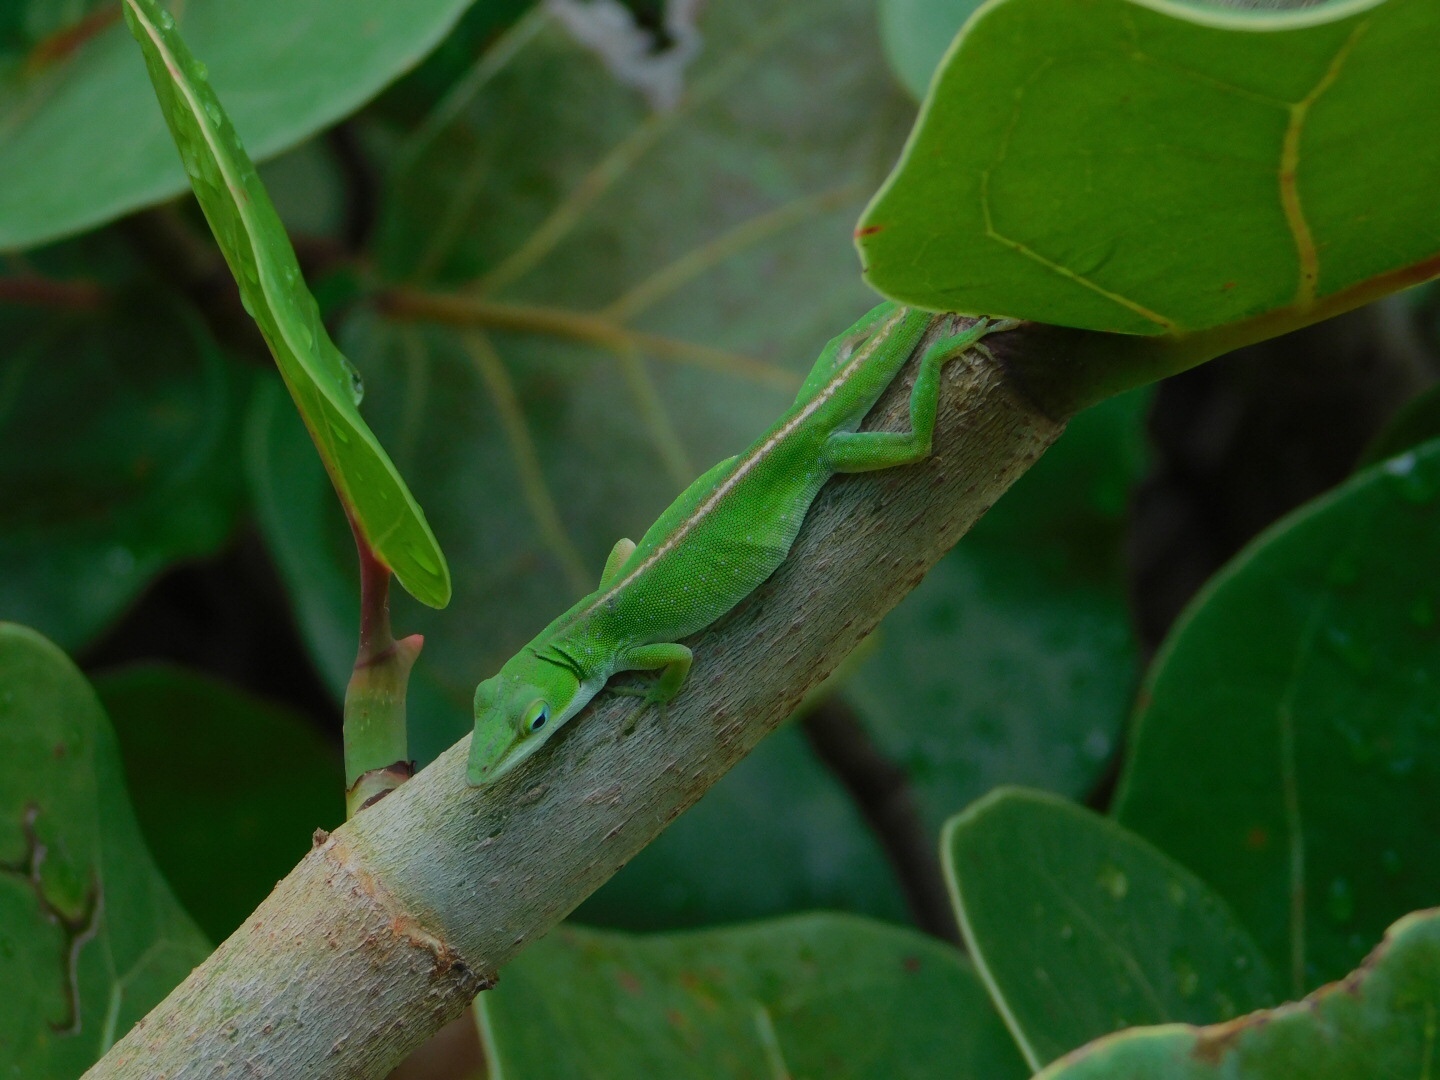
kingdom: Animalia
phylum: Chordata
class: Squamata
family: Dactyloidae
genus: Anolis
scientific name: Anolis carolinensis
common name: Green anole
